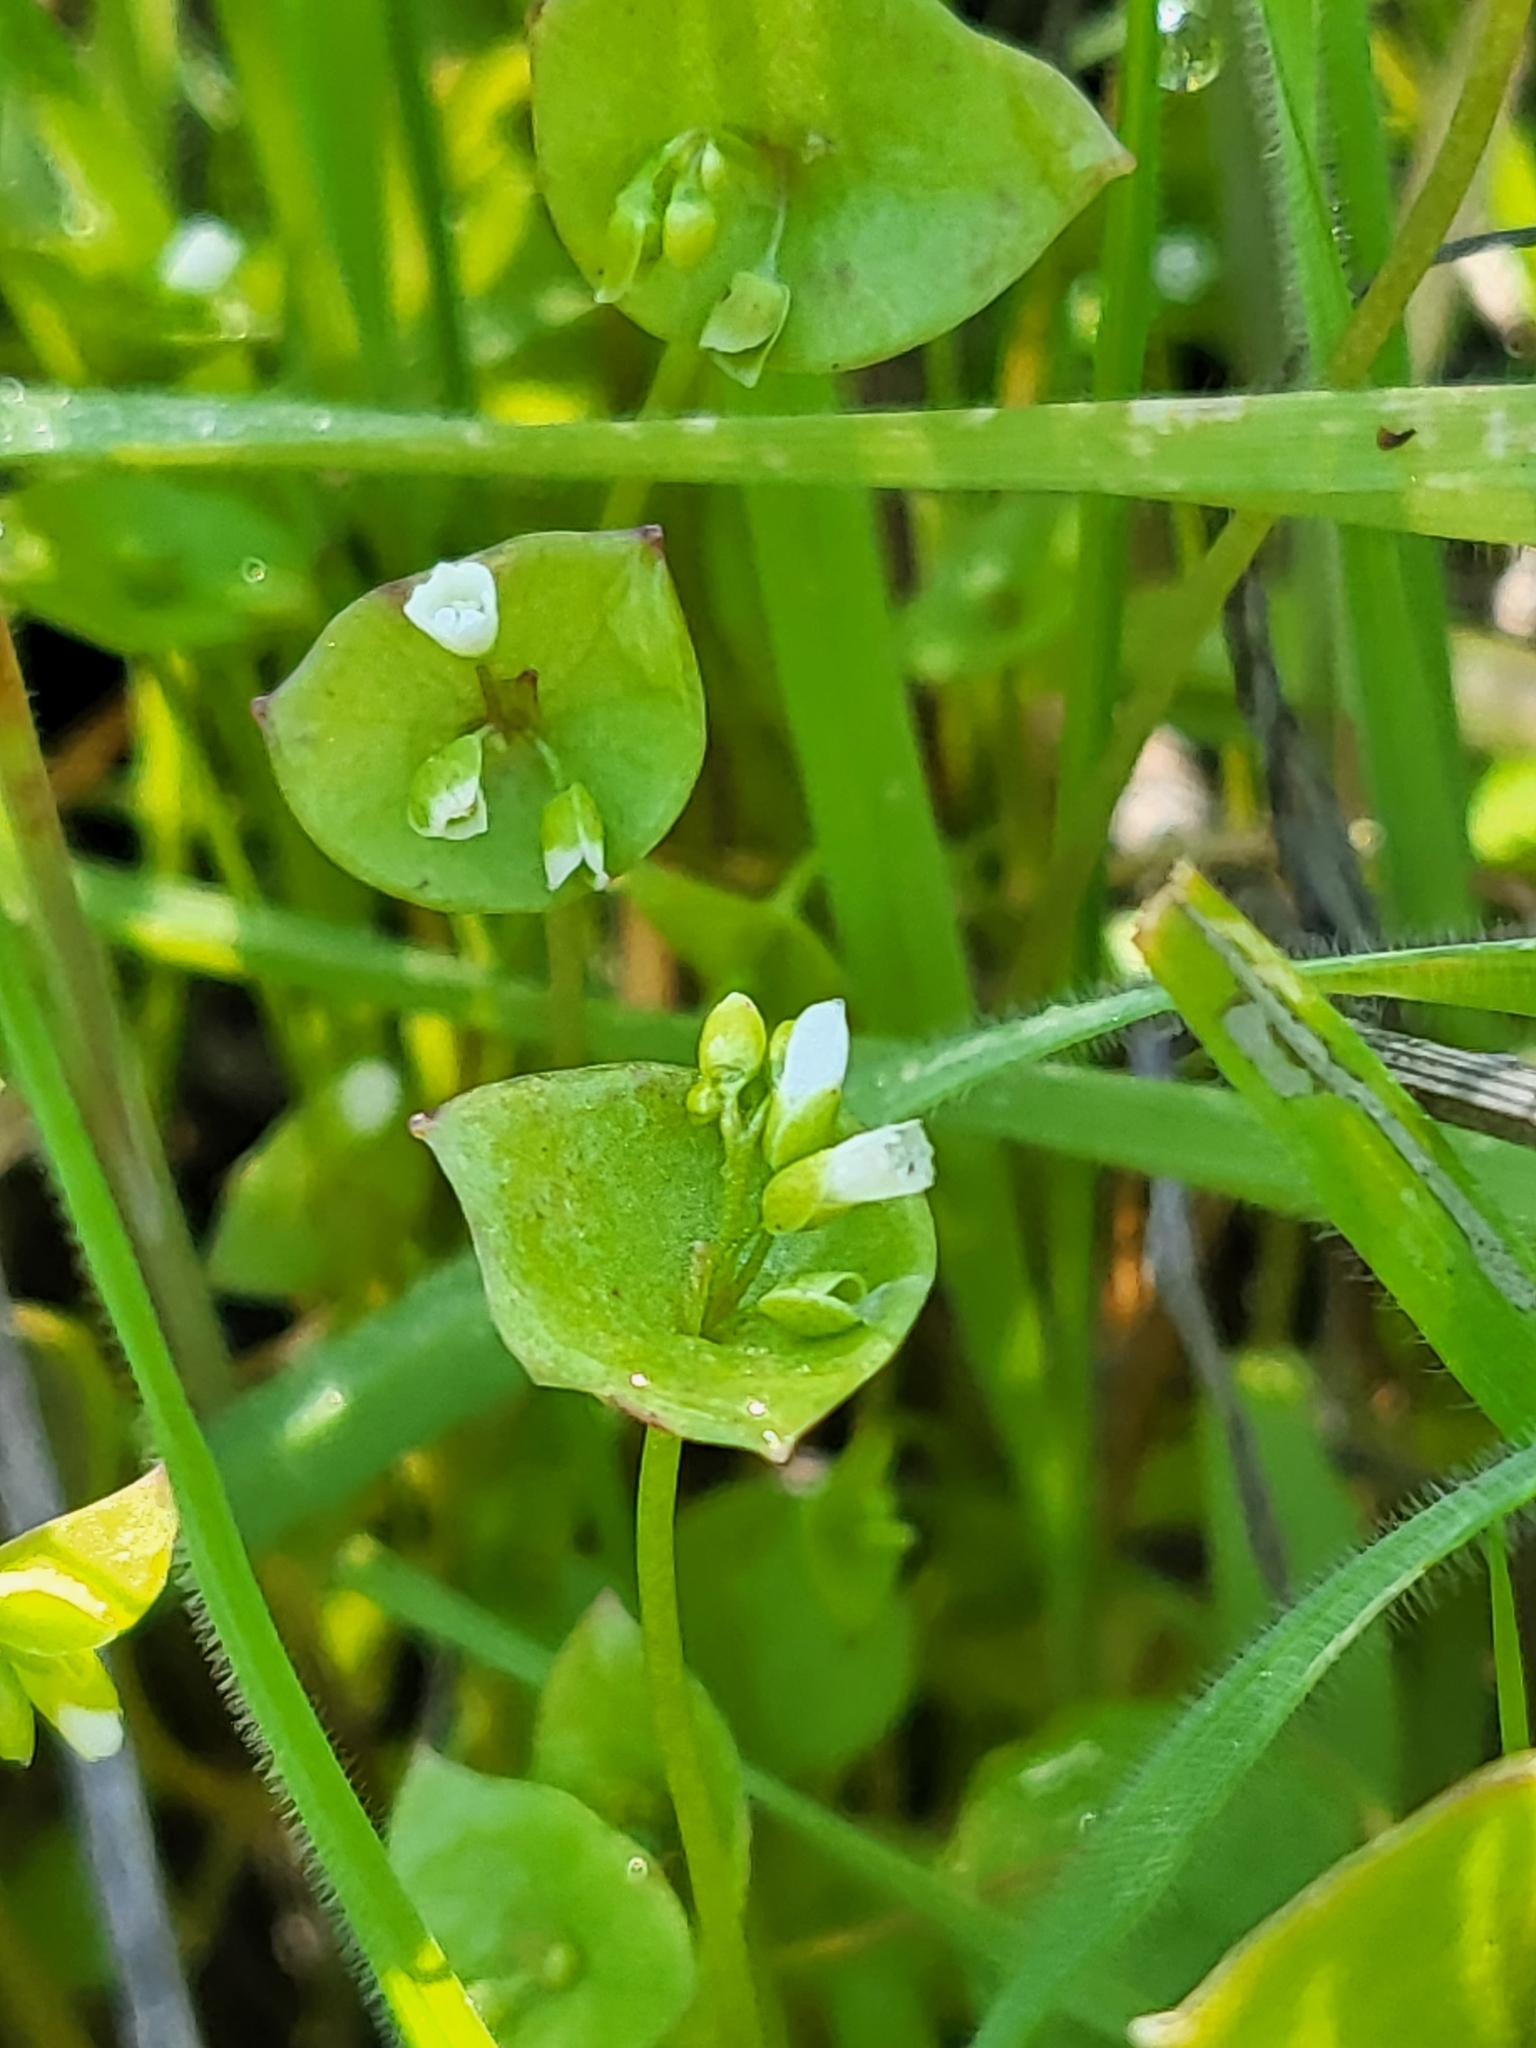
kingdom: Plantae
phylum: Tracheophyta
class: Magnoliopsida
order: Caryophyllales
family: Montiaceae
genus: Claytonia
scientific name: Claytonia perfoliata
